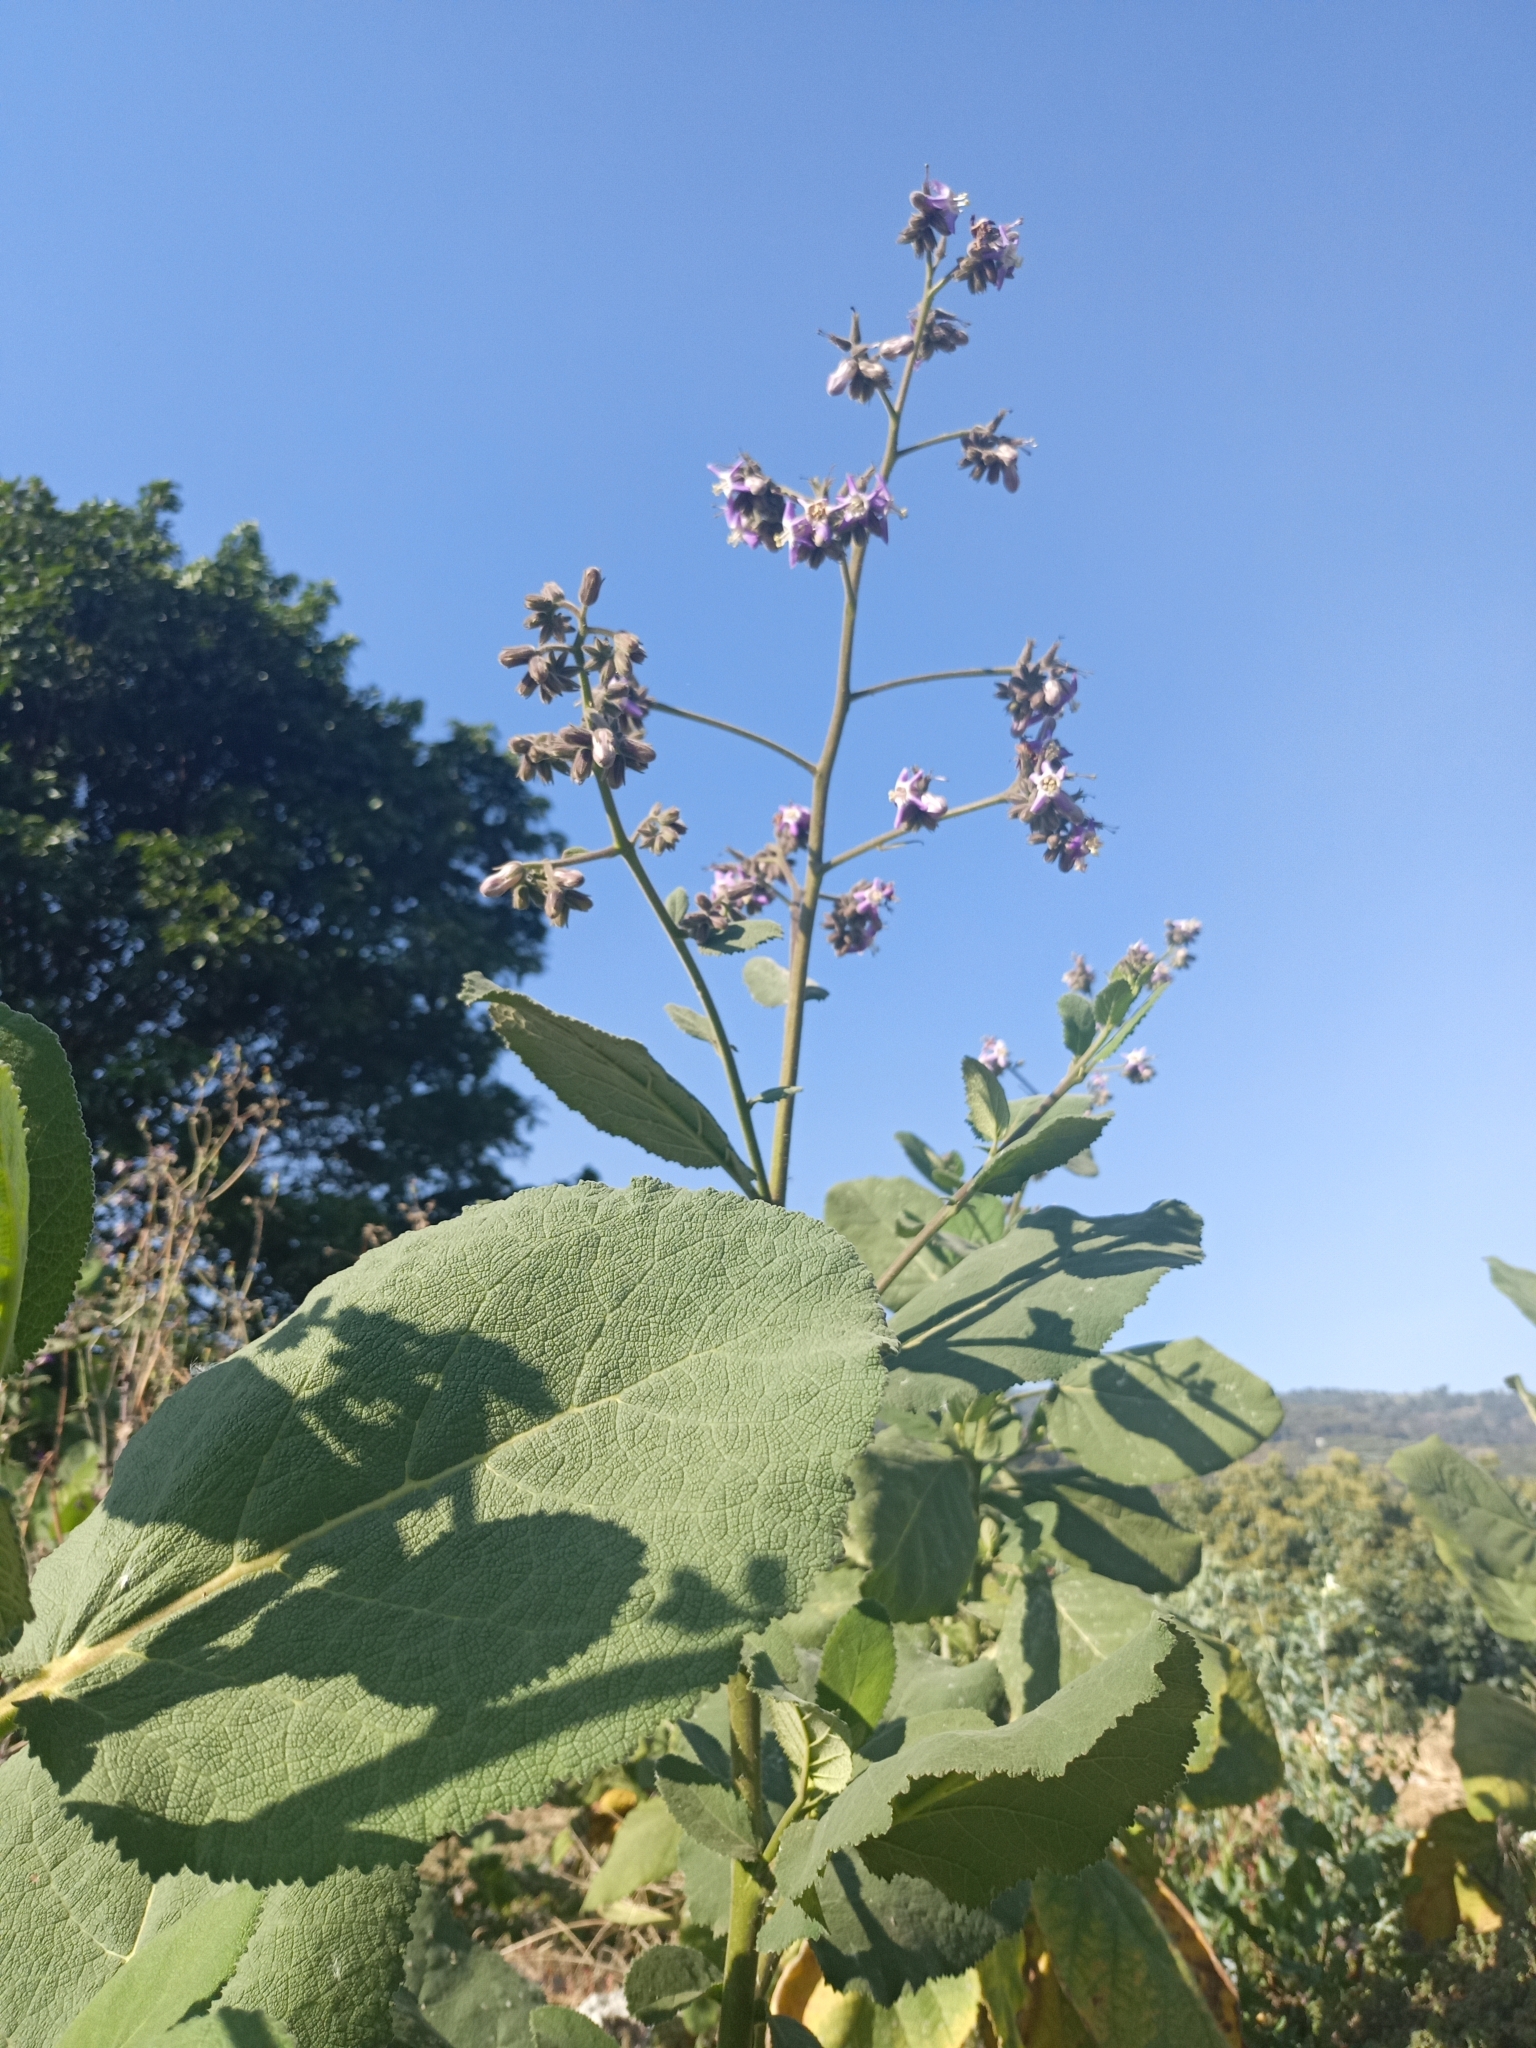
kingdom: Plantae
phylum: Tracheophyta
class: Magnoliopsida
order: Boraginales
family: Namaceae
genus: Wigandia
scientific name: Wigandia urens
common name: Caracus wigandia
